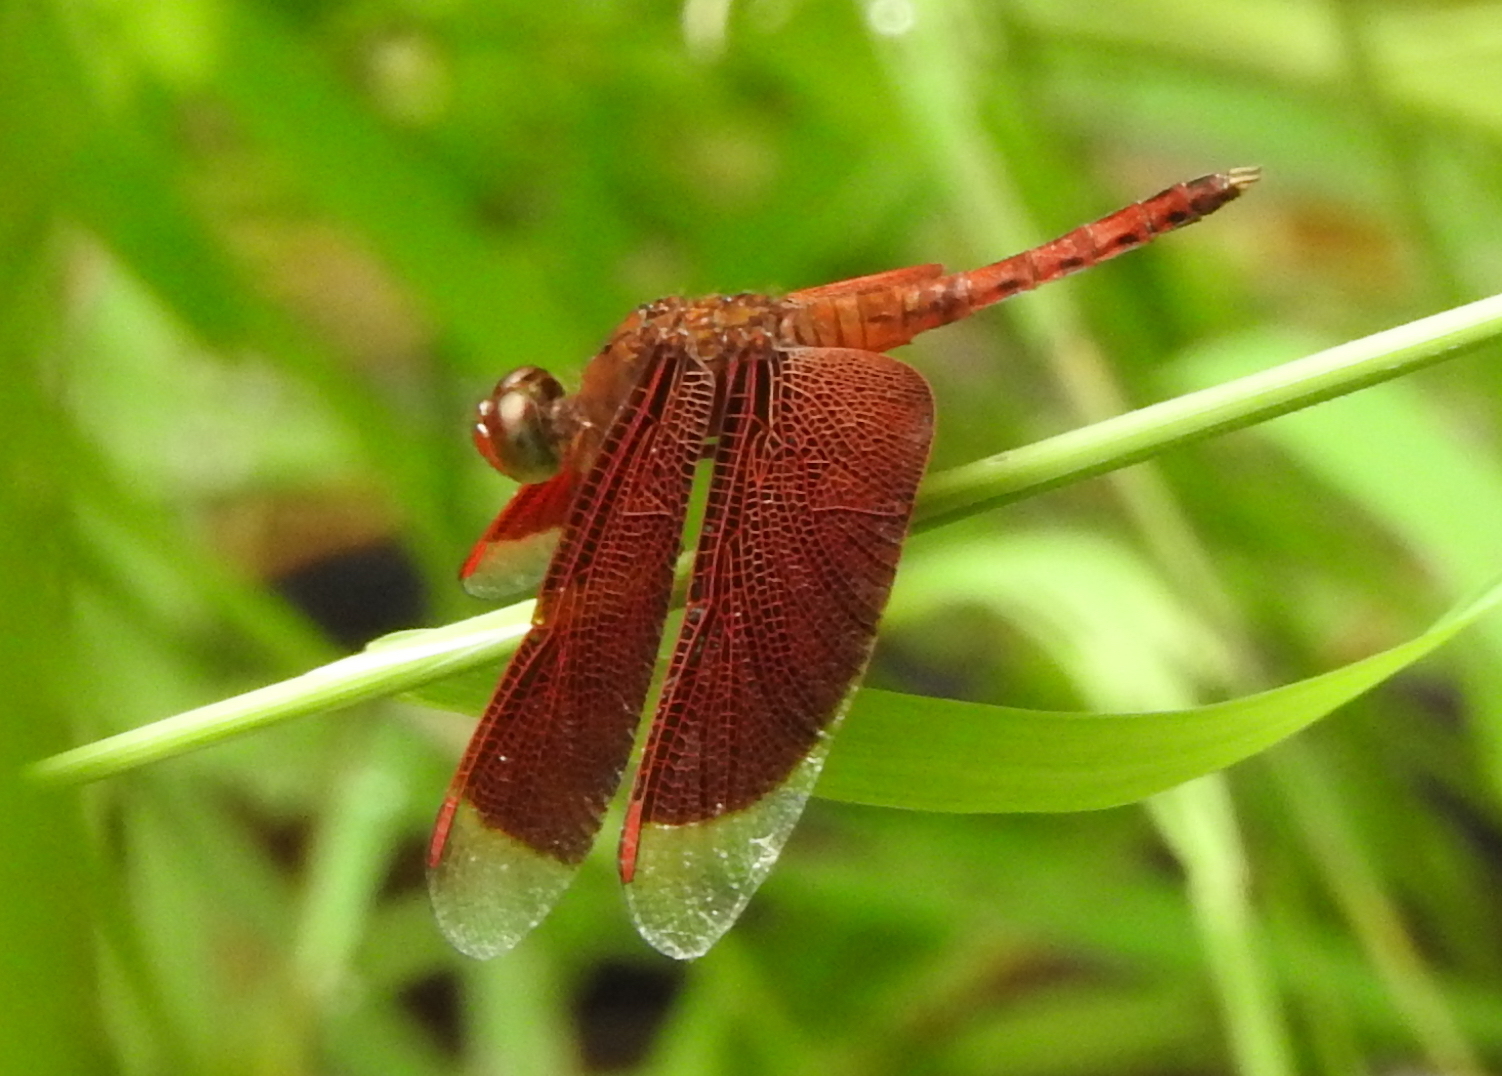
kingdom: Animalia
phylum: Arthropoda
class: Insecta
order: Odonata
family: Libellulidae
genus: Neurothemis
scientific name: Neurothemis fluctuans
